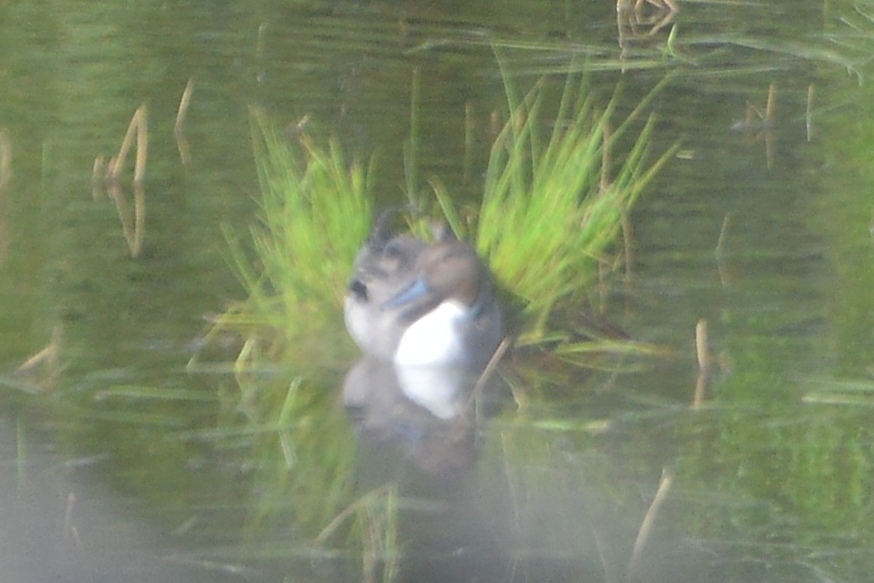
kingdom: Animalia
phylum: Chordata
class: Aves
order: Anseriformes
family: Anatidae
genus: Anas
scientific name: Anas acuta
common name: Northern pintail
